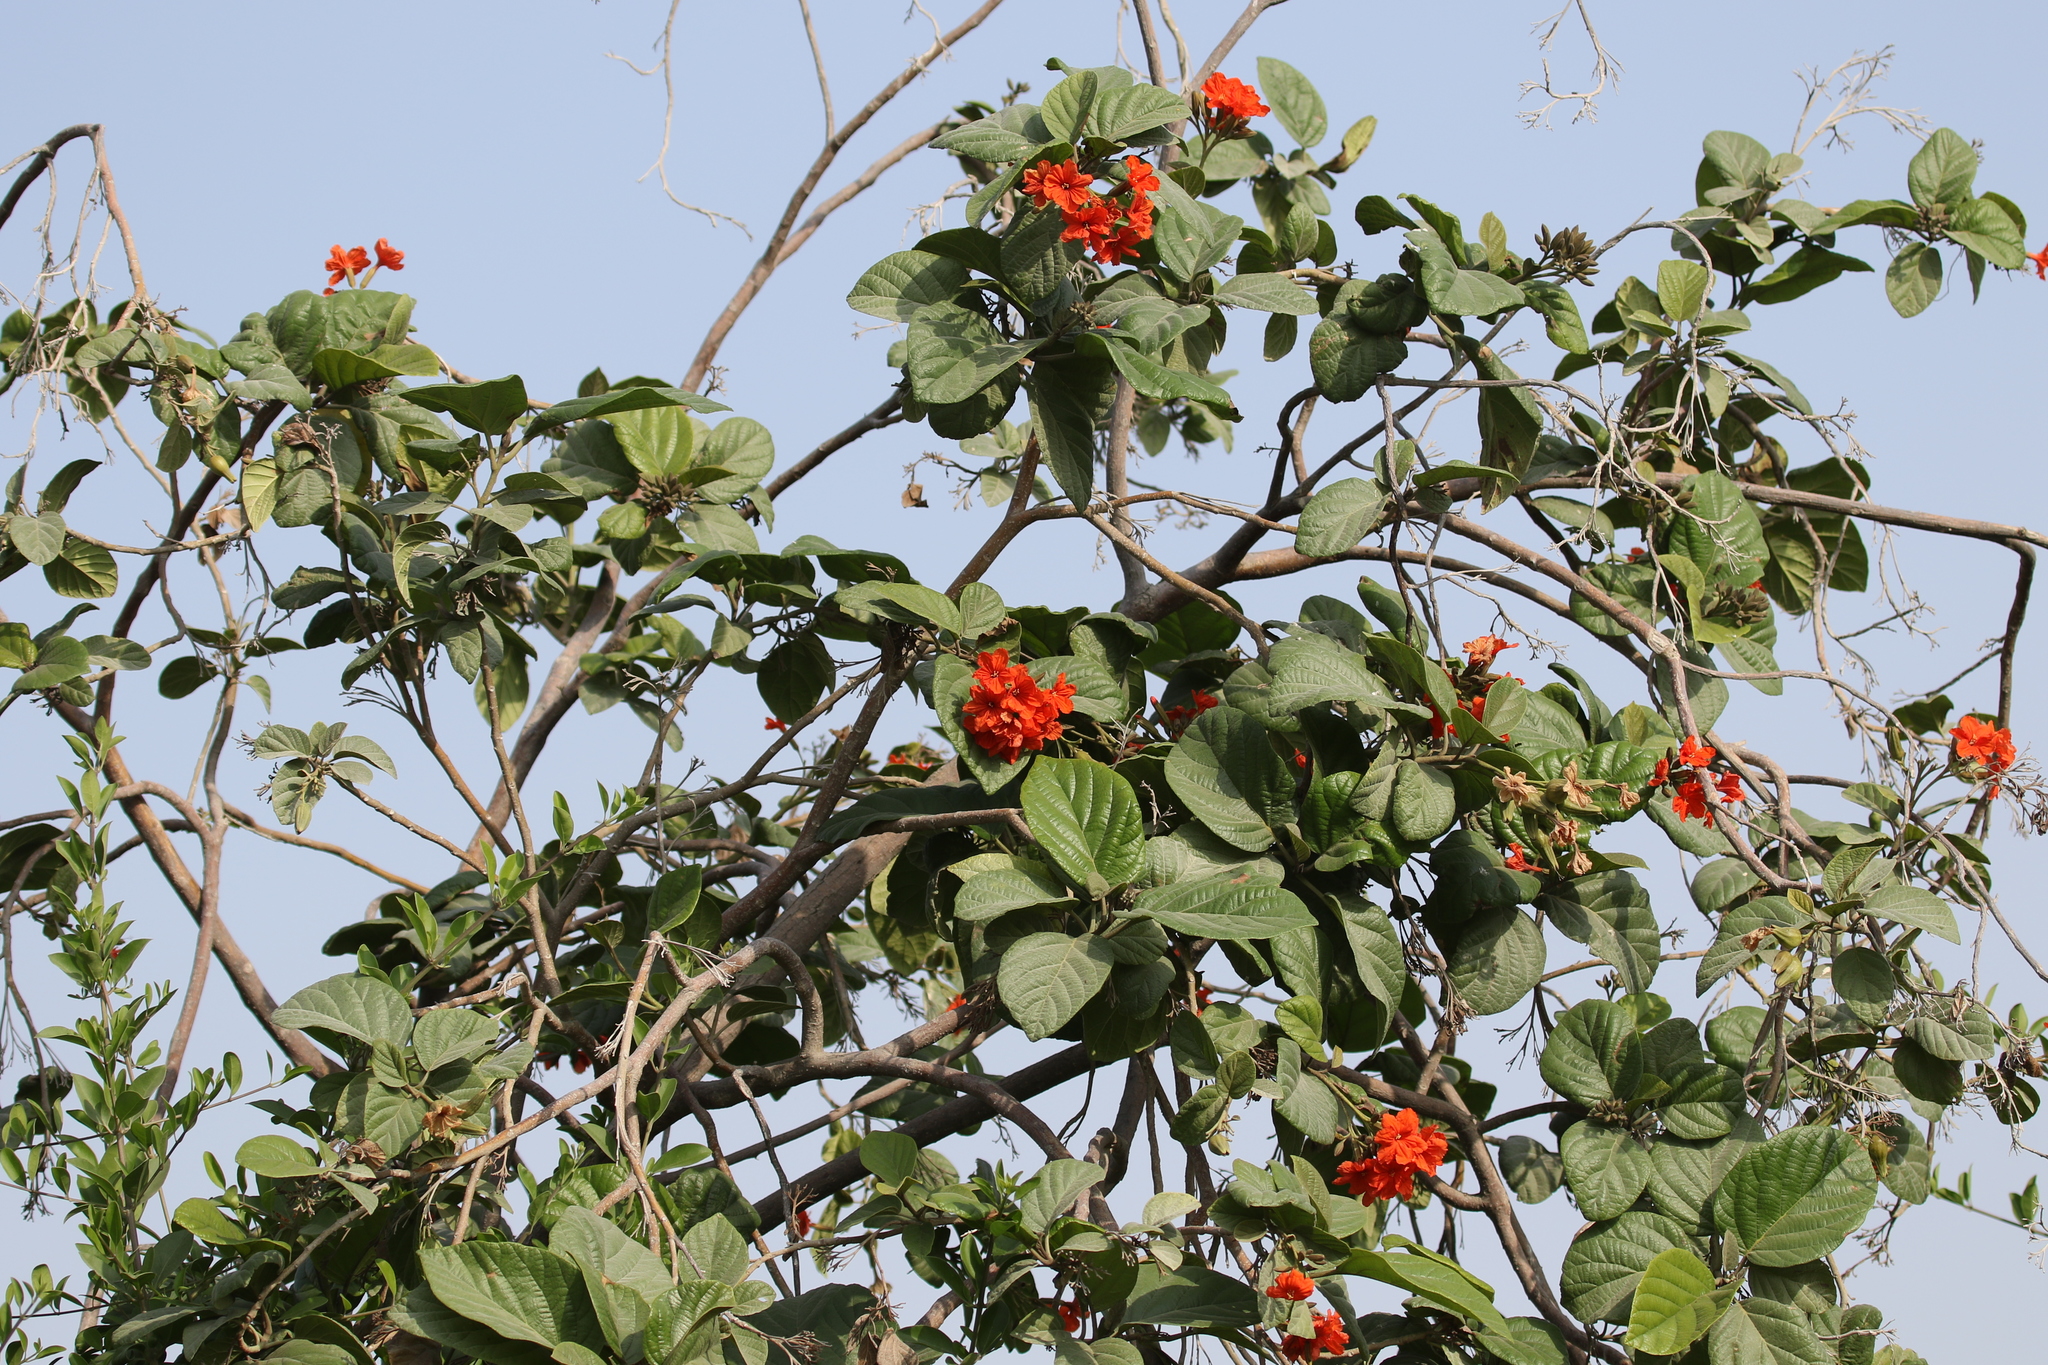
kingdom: Plantae
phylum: Tracheophyta
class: Magnoliopsida
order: Boraginales
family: Cordiaceae
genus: Cordia
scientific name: Cordia sebestena
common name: Largeleaf geigertree
